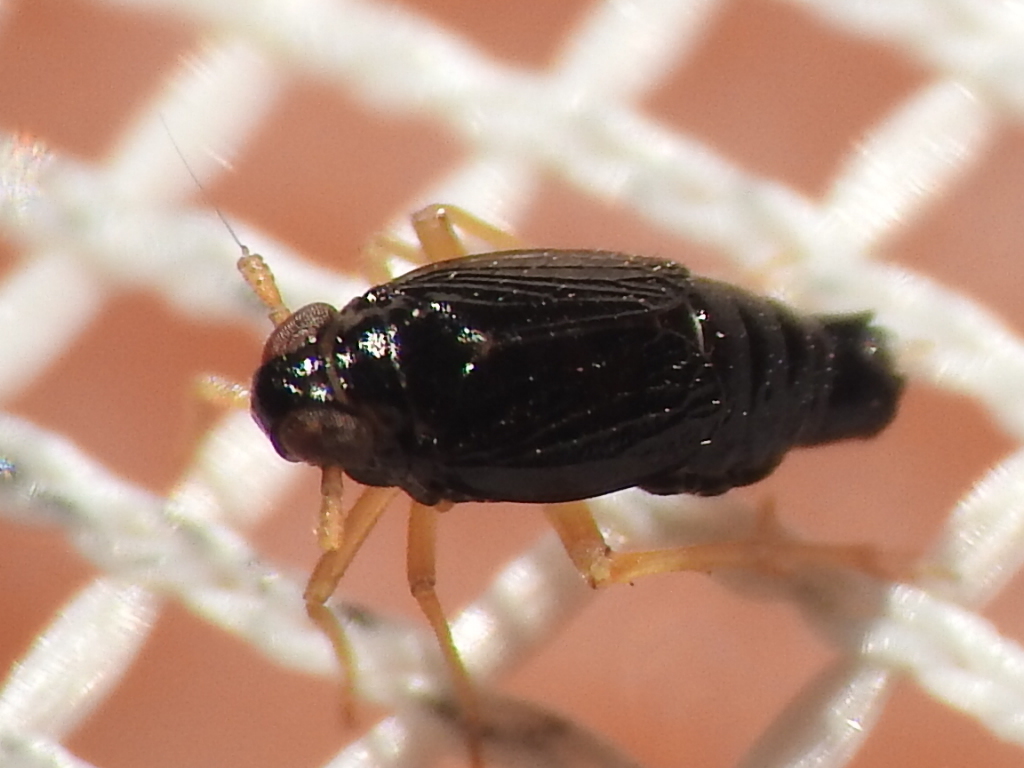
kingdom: Animalia
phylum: Arthropoda
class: Insecta
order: Hemiptera
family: Delphacidae
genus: Flavoclypeus
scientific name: Flavoclypeus nitens
